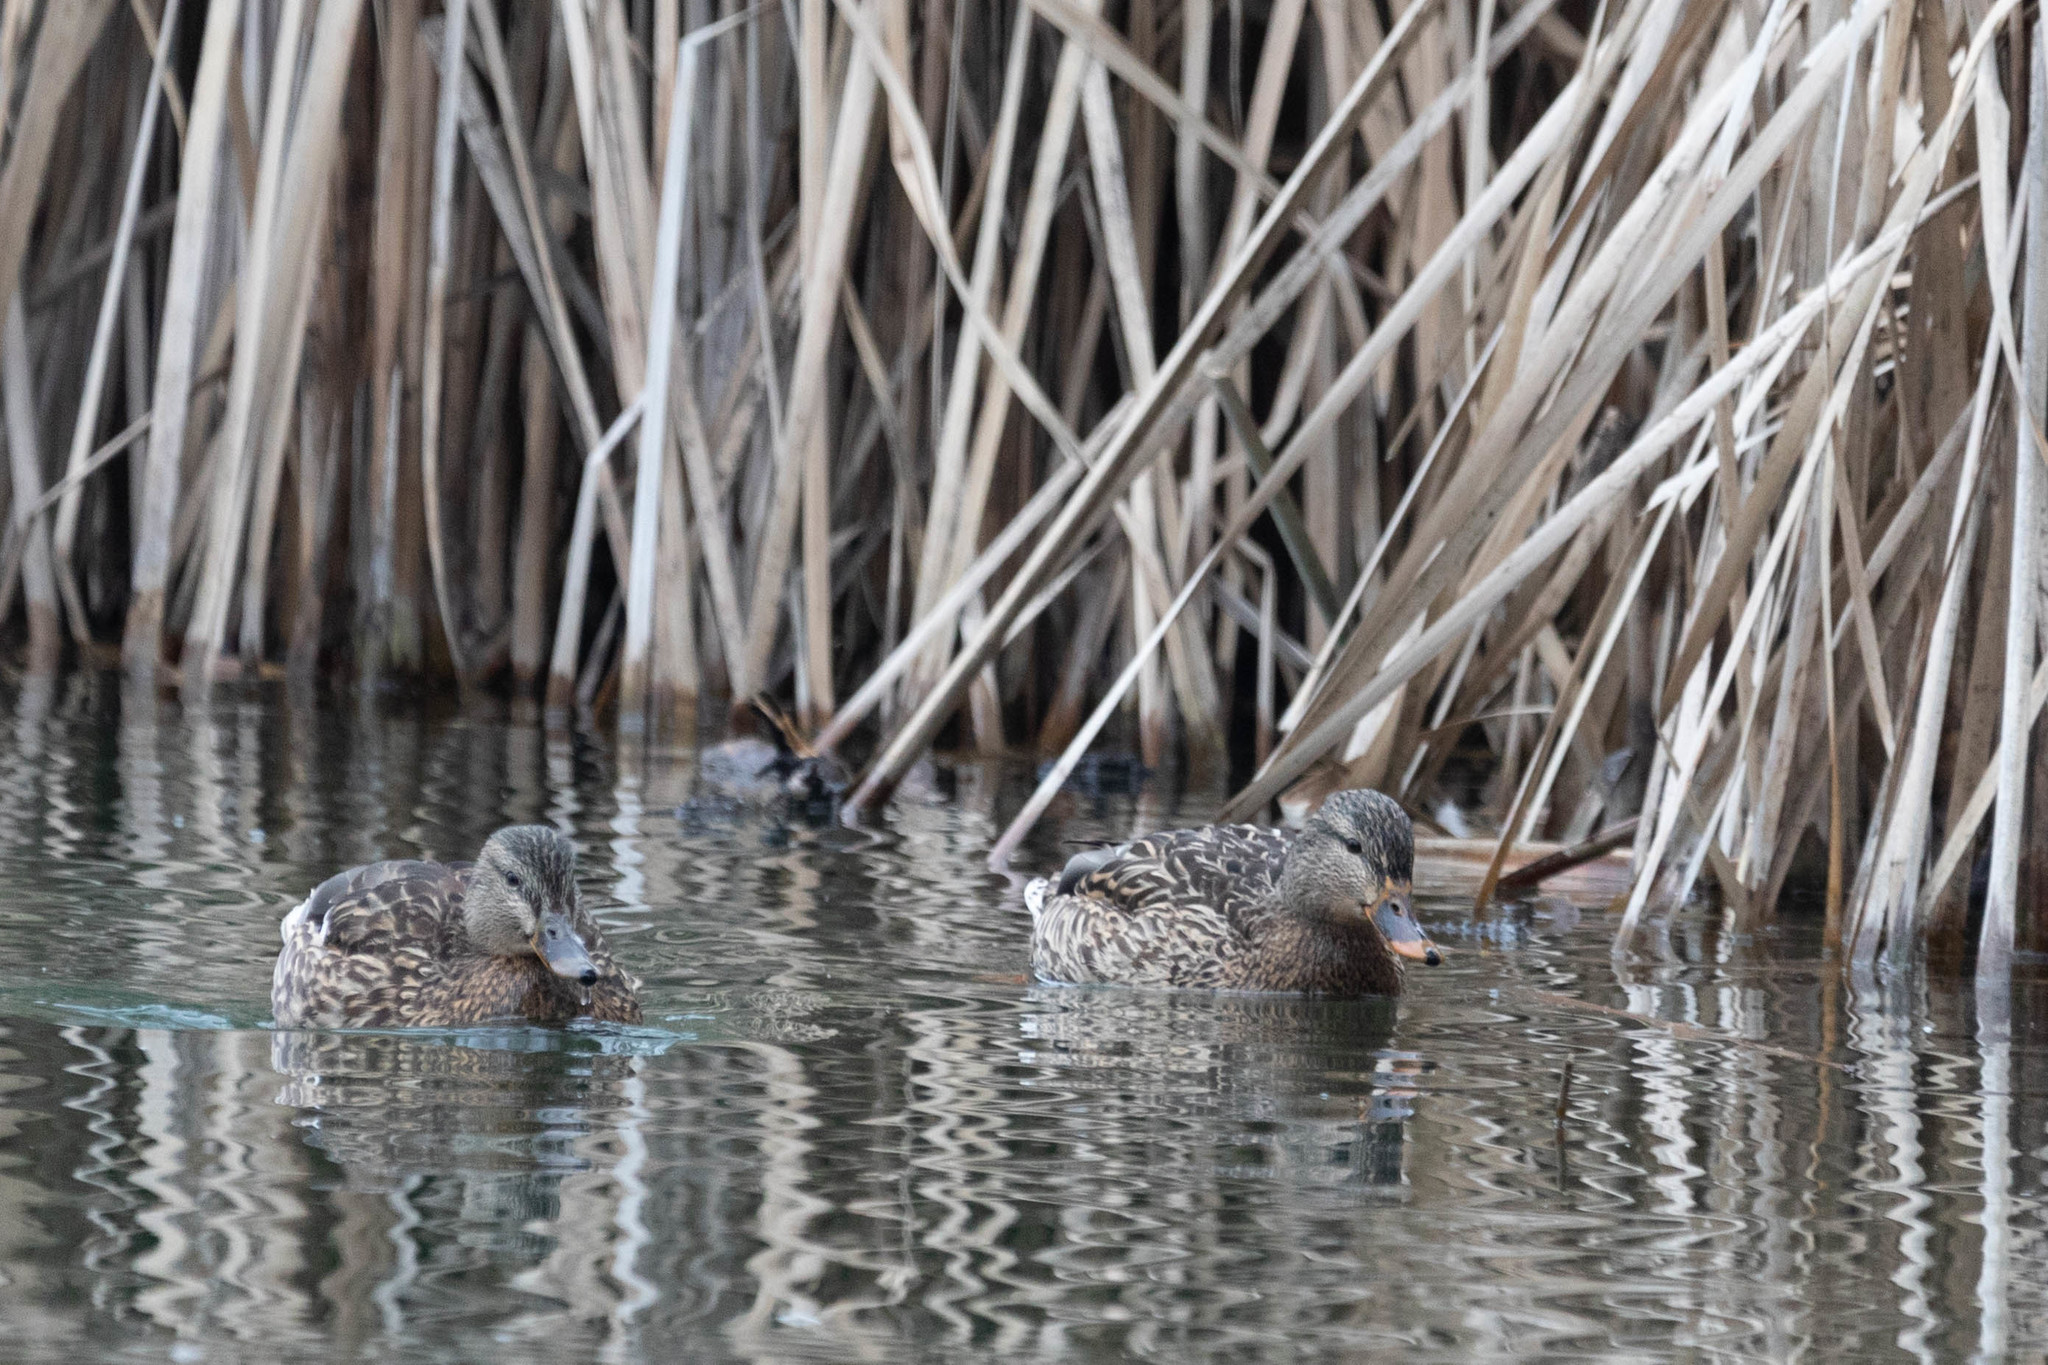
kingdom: Animalia
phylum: Chordata
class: Aves
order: Anseriformes
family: Anatidae
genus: Anas
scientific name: Anas platyrhynchos
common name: Mallard
